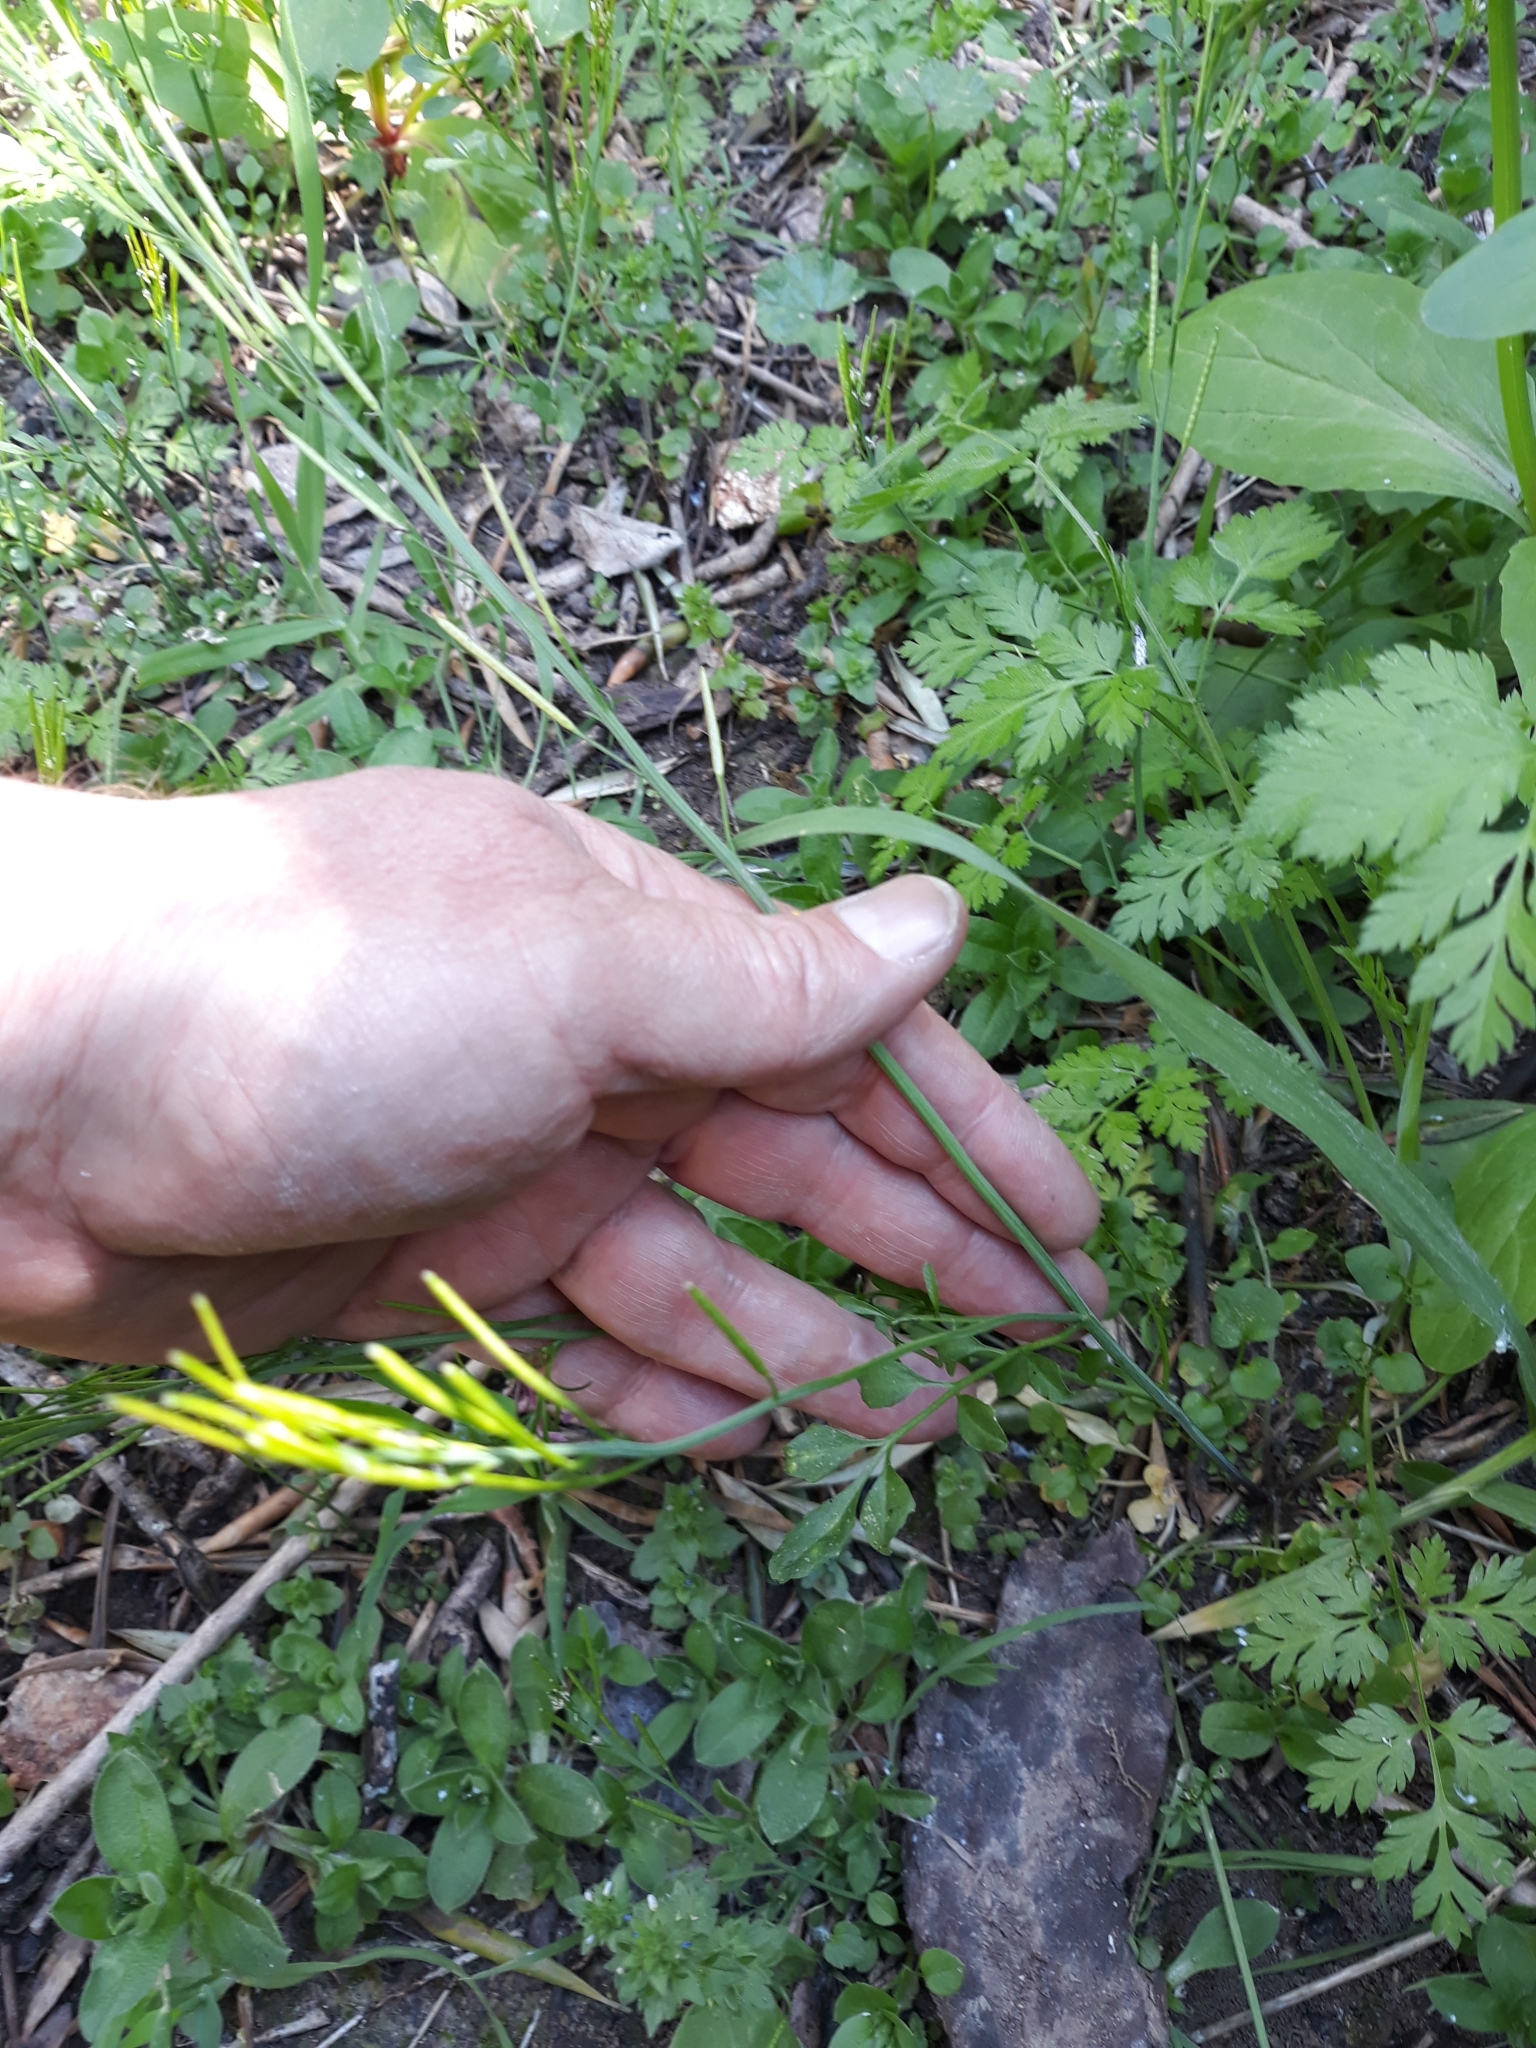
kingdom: Plantae
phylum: Tracheophyta
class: Magnoliopsida
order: Brassicales
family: Brassicaceae
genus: Cardamine
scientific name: Cardamine hirsuta
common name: Hairy bittercress
